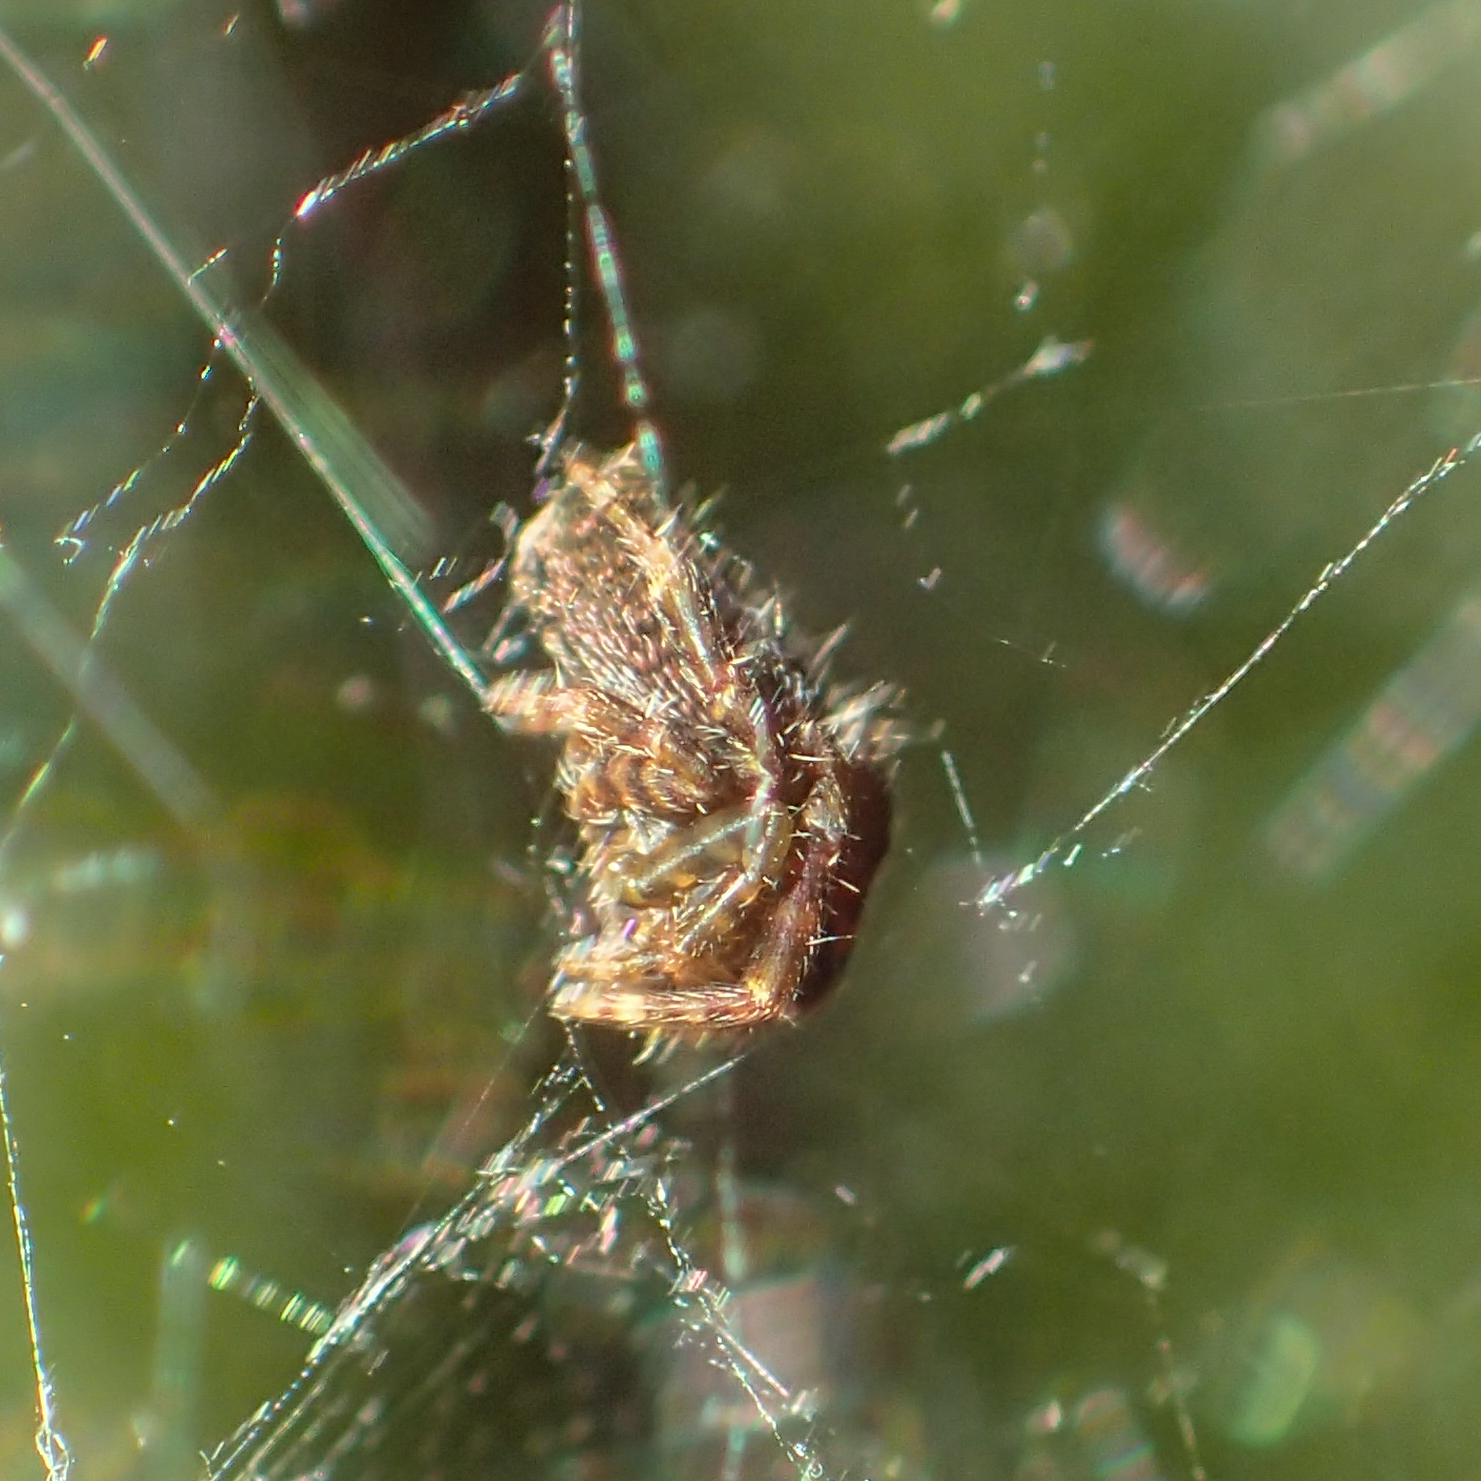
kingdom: Animalia
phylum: Arthropoda
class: Arachnida
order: Araneae
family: Araneidae
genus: Cyrtophora
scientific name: Cyrtophora unicolor
